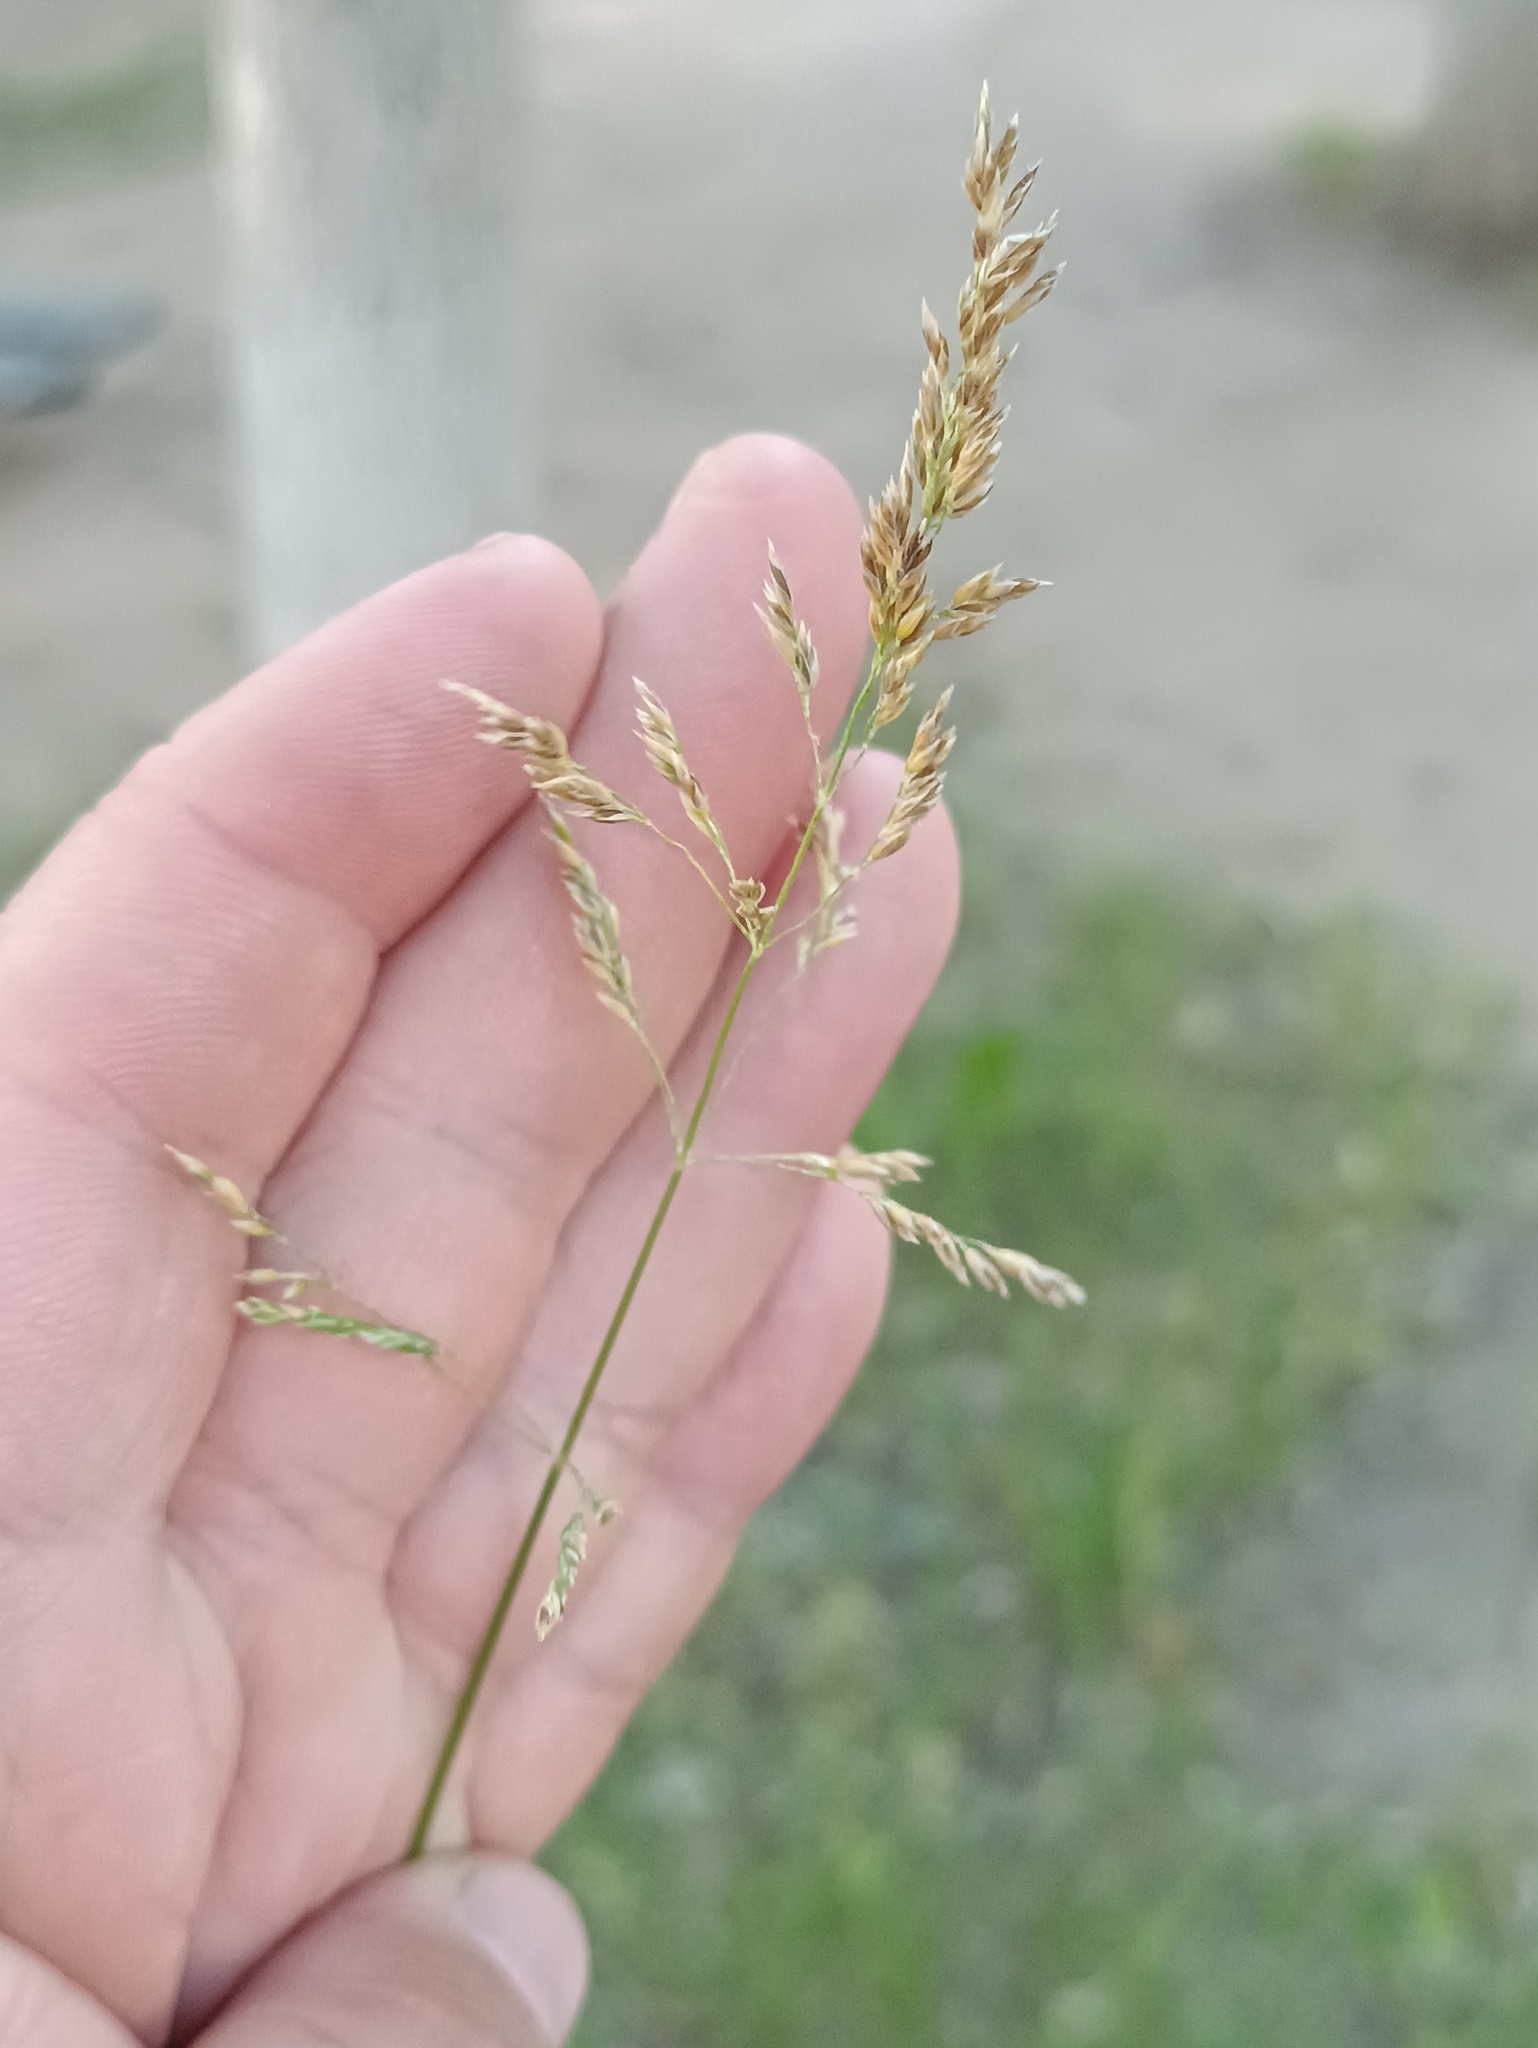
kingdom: Plantae
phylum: Tracheophyta
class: Liliopsida
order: Poales
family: Poaceae
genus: Poa
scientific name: Poa pratensis
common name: Kentucky bluegrass
